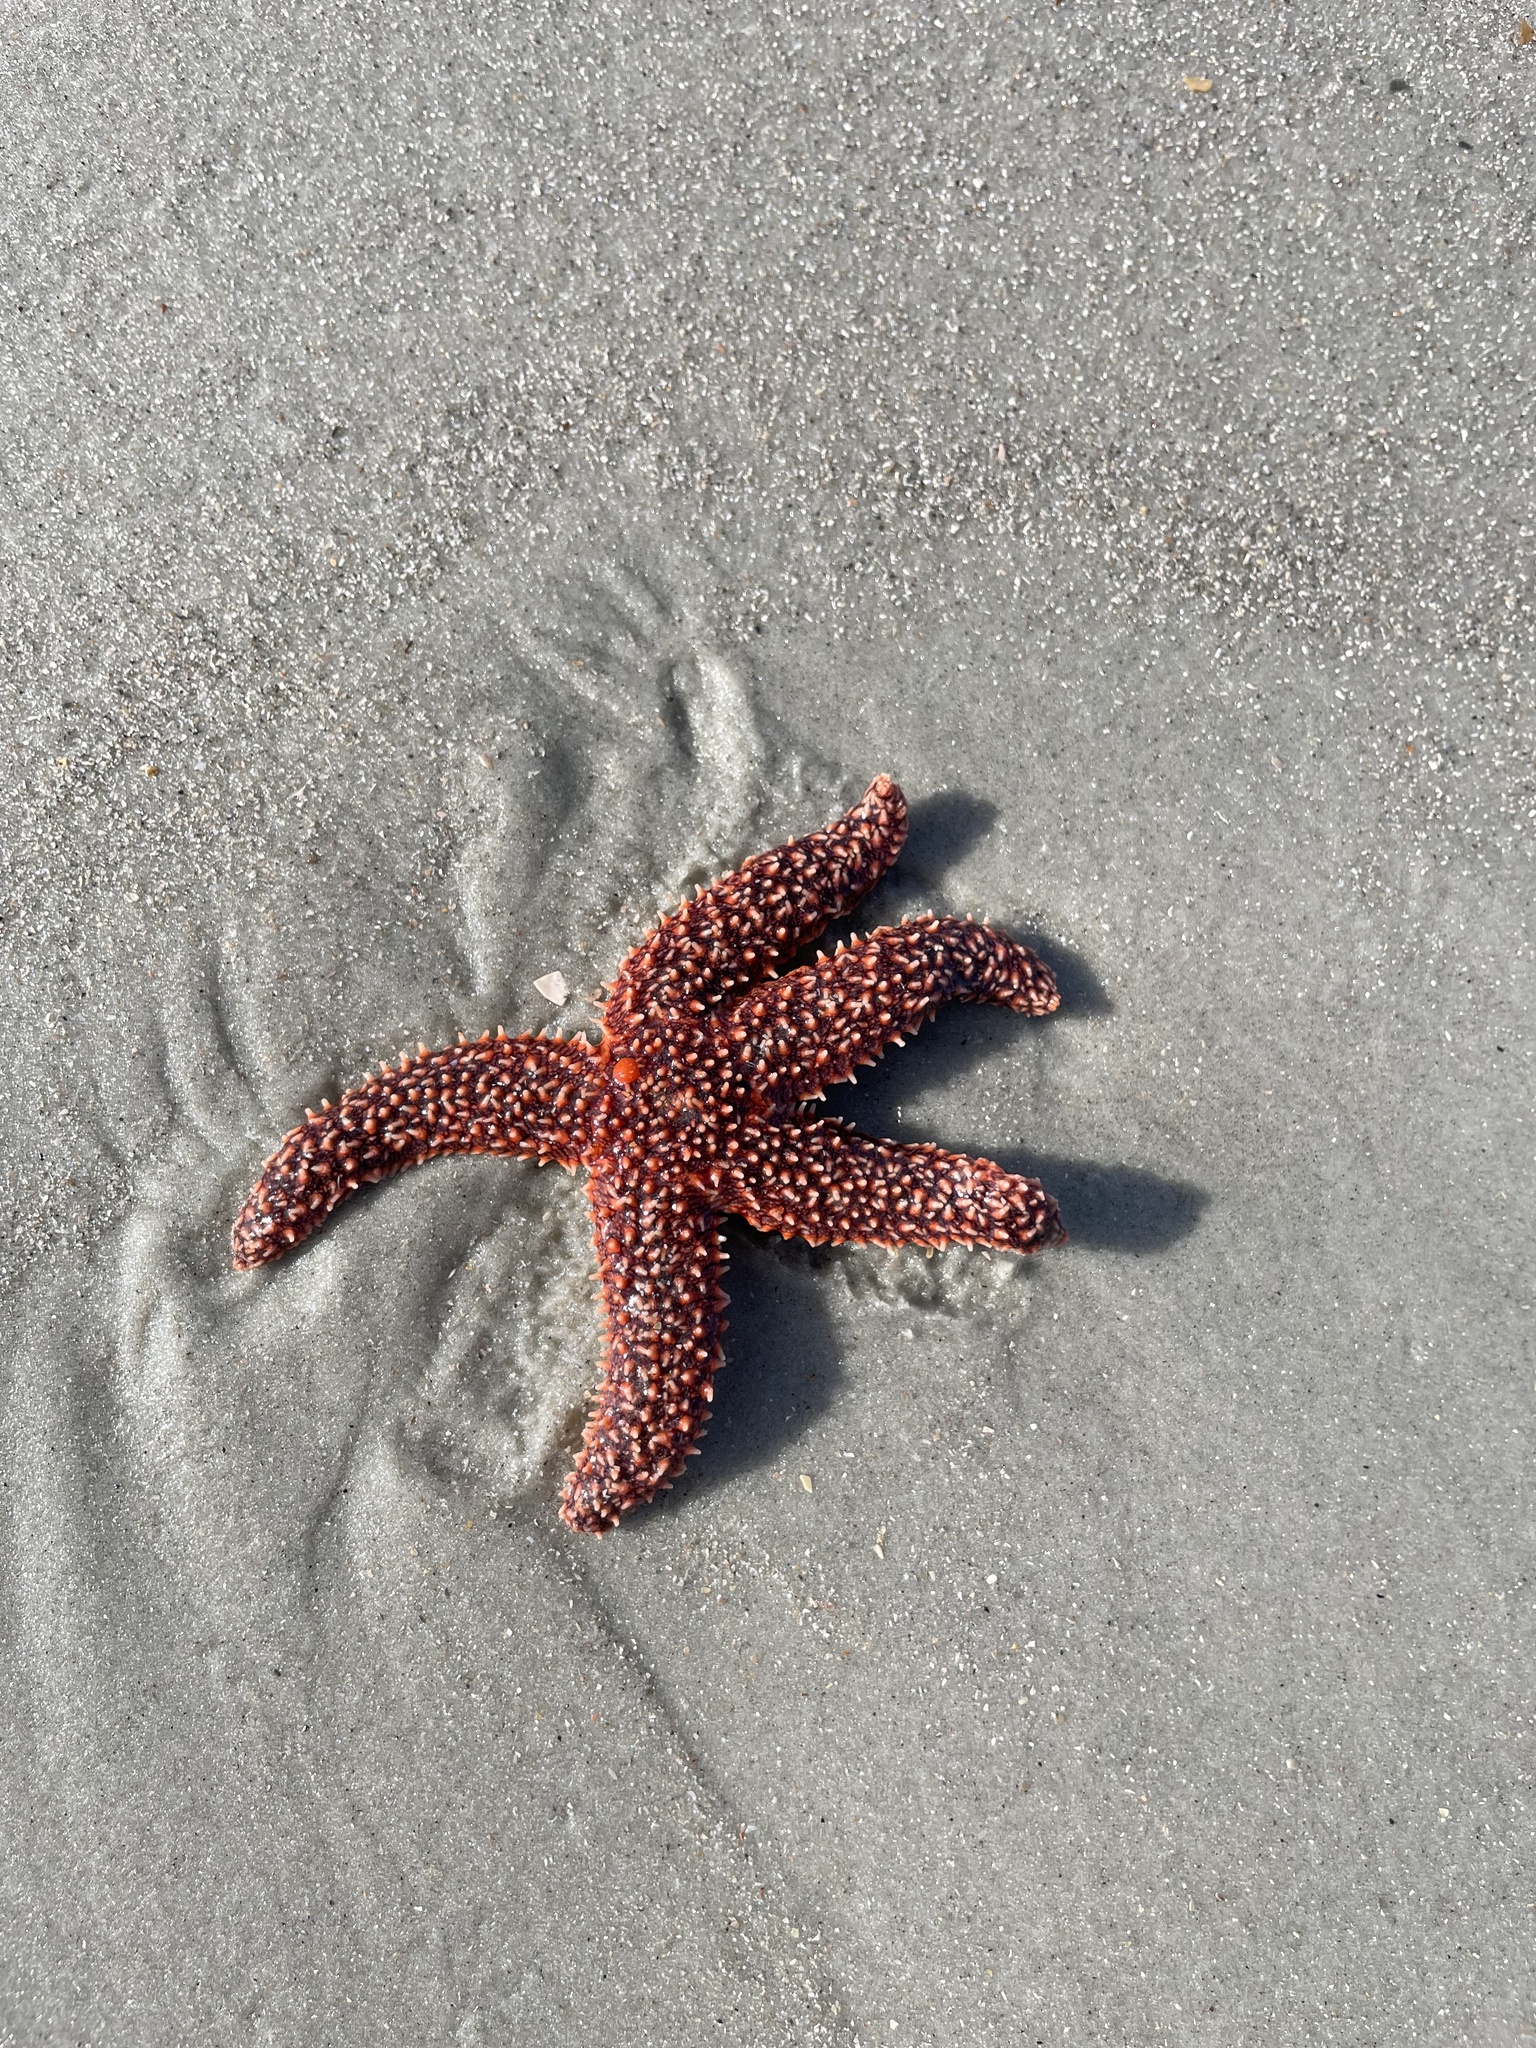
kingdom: Animalia
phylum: Echinodermata
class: Asteroidea
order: Forcipulatida
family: Asteriidae
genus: Asterias
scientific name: Asterias forbesi
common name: Forbes's sea star
